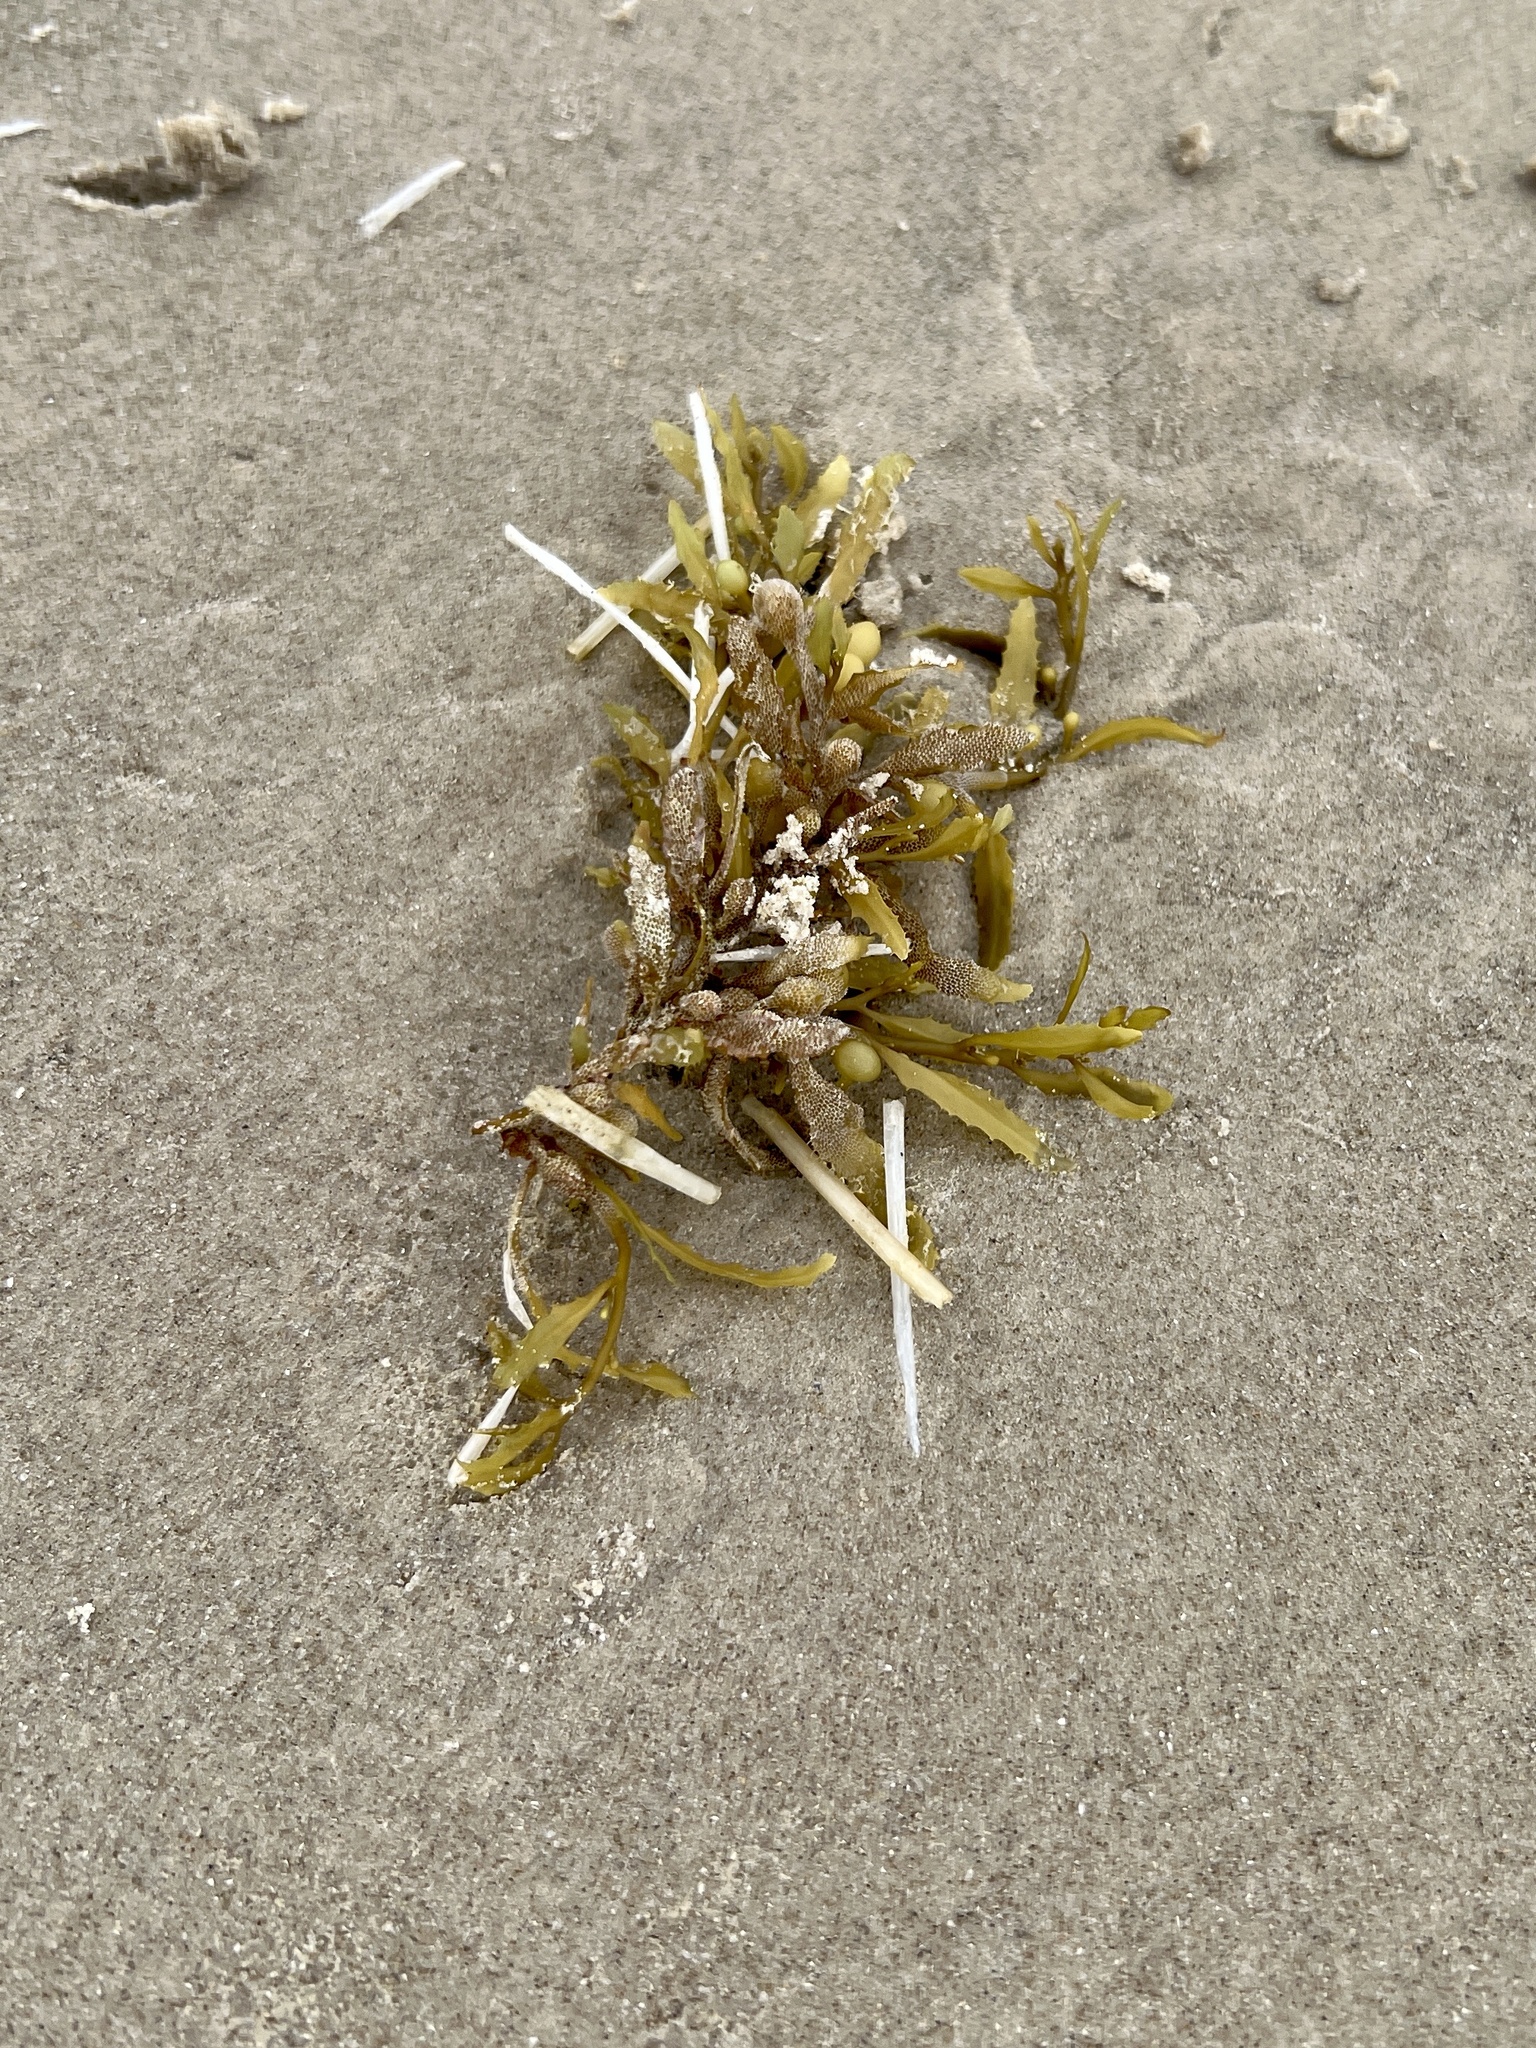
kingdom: Chromista
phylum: Ochrophyta
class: Phaeophyceae
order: Fucales
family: Sargassaceae
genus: Sargassum
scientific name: Sargassum fluitans
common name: Sargassum seaweed
